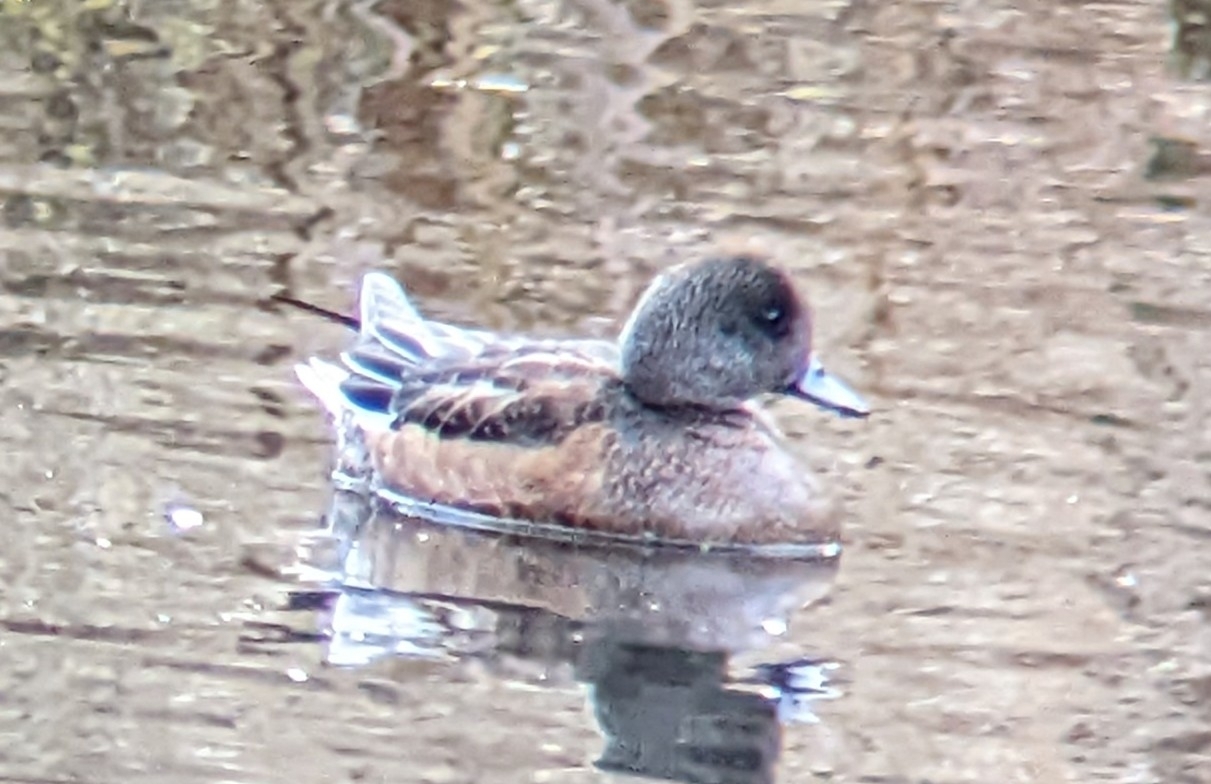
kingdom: Animalia
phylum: Chordata
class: Aves
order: Anseriformes
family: Anatidae
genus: Mareca
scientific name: Mareca americana
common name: American wigeon
